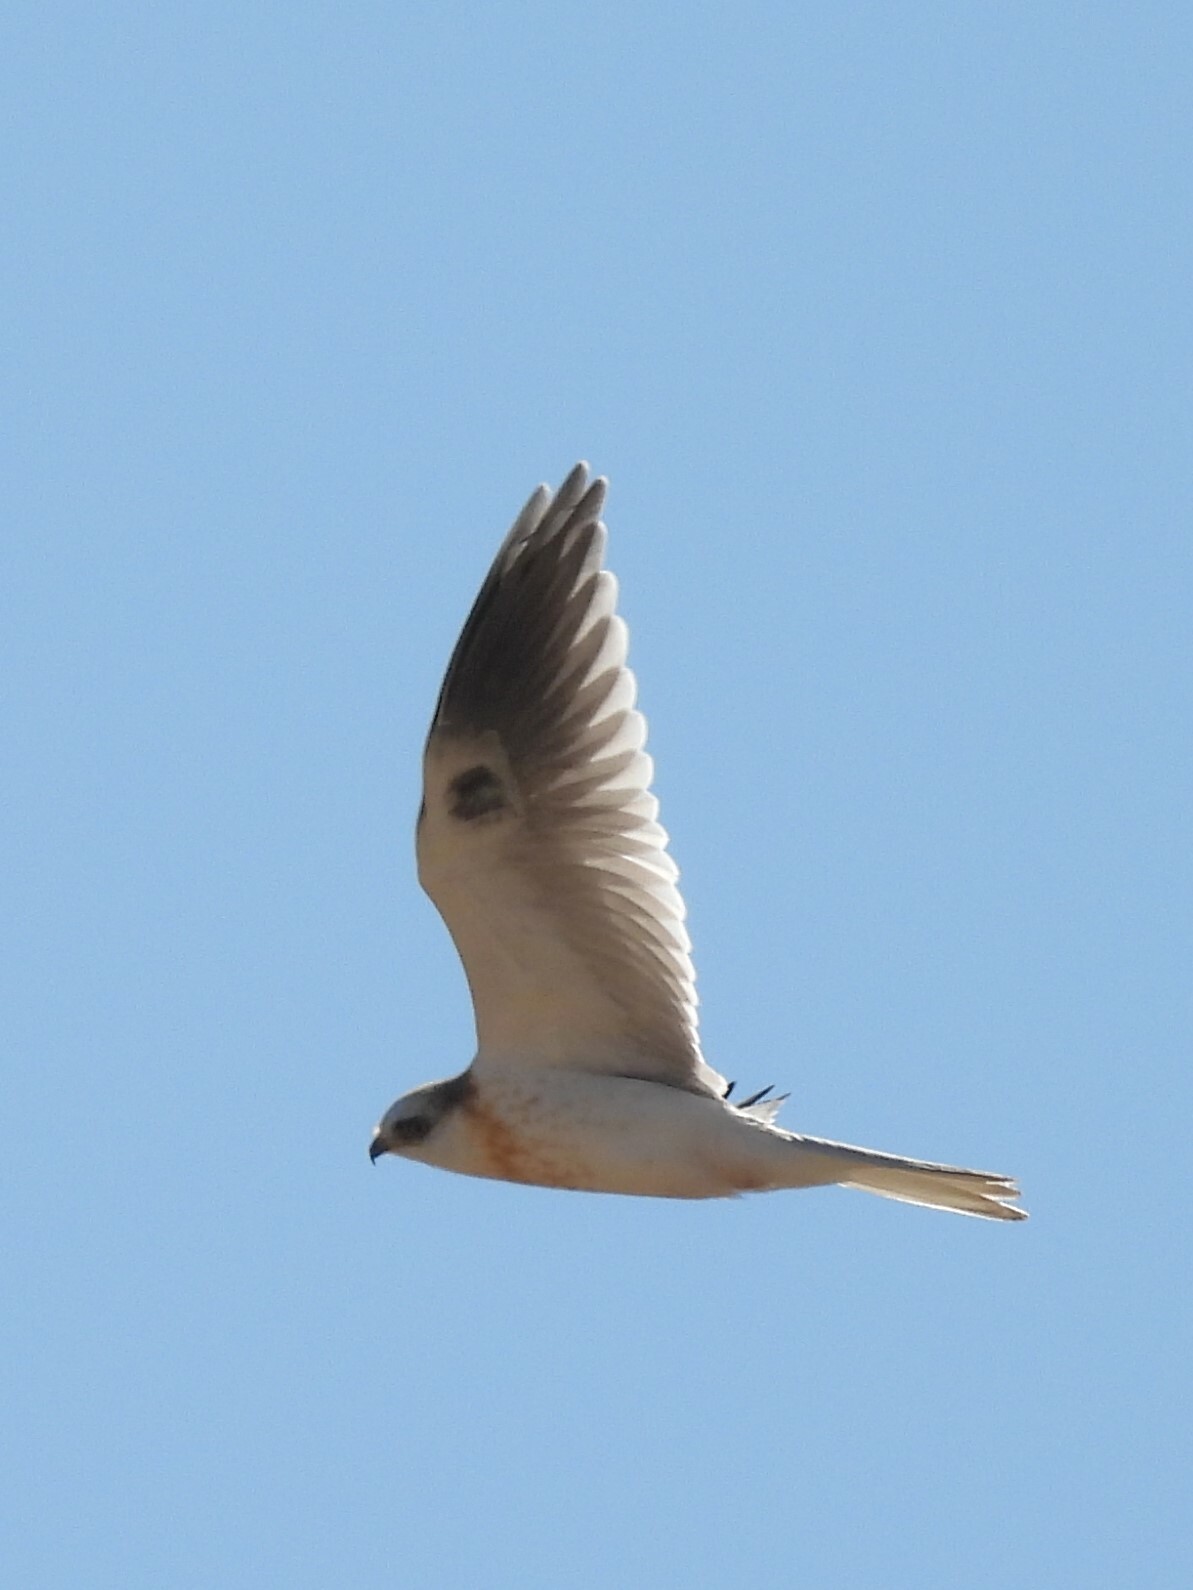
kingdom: Animalia
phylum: Chordata
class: Aves
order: Accipitriformes
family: Accipitridae
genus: Elanus
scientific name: Elanus leucurus
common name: White-tailed kite
